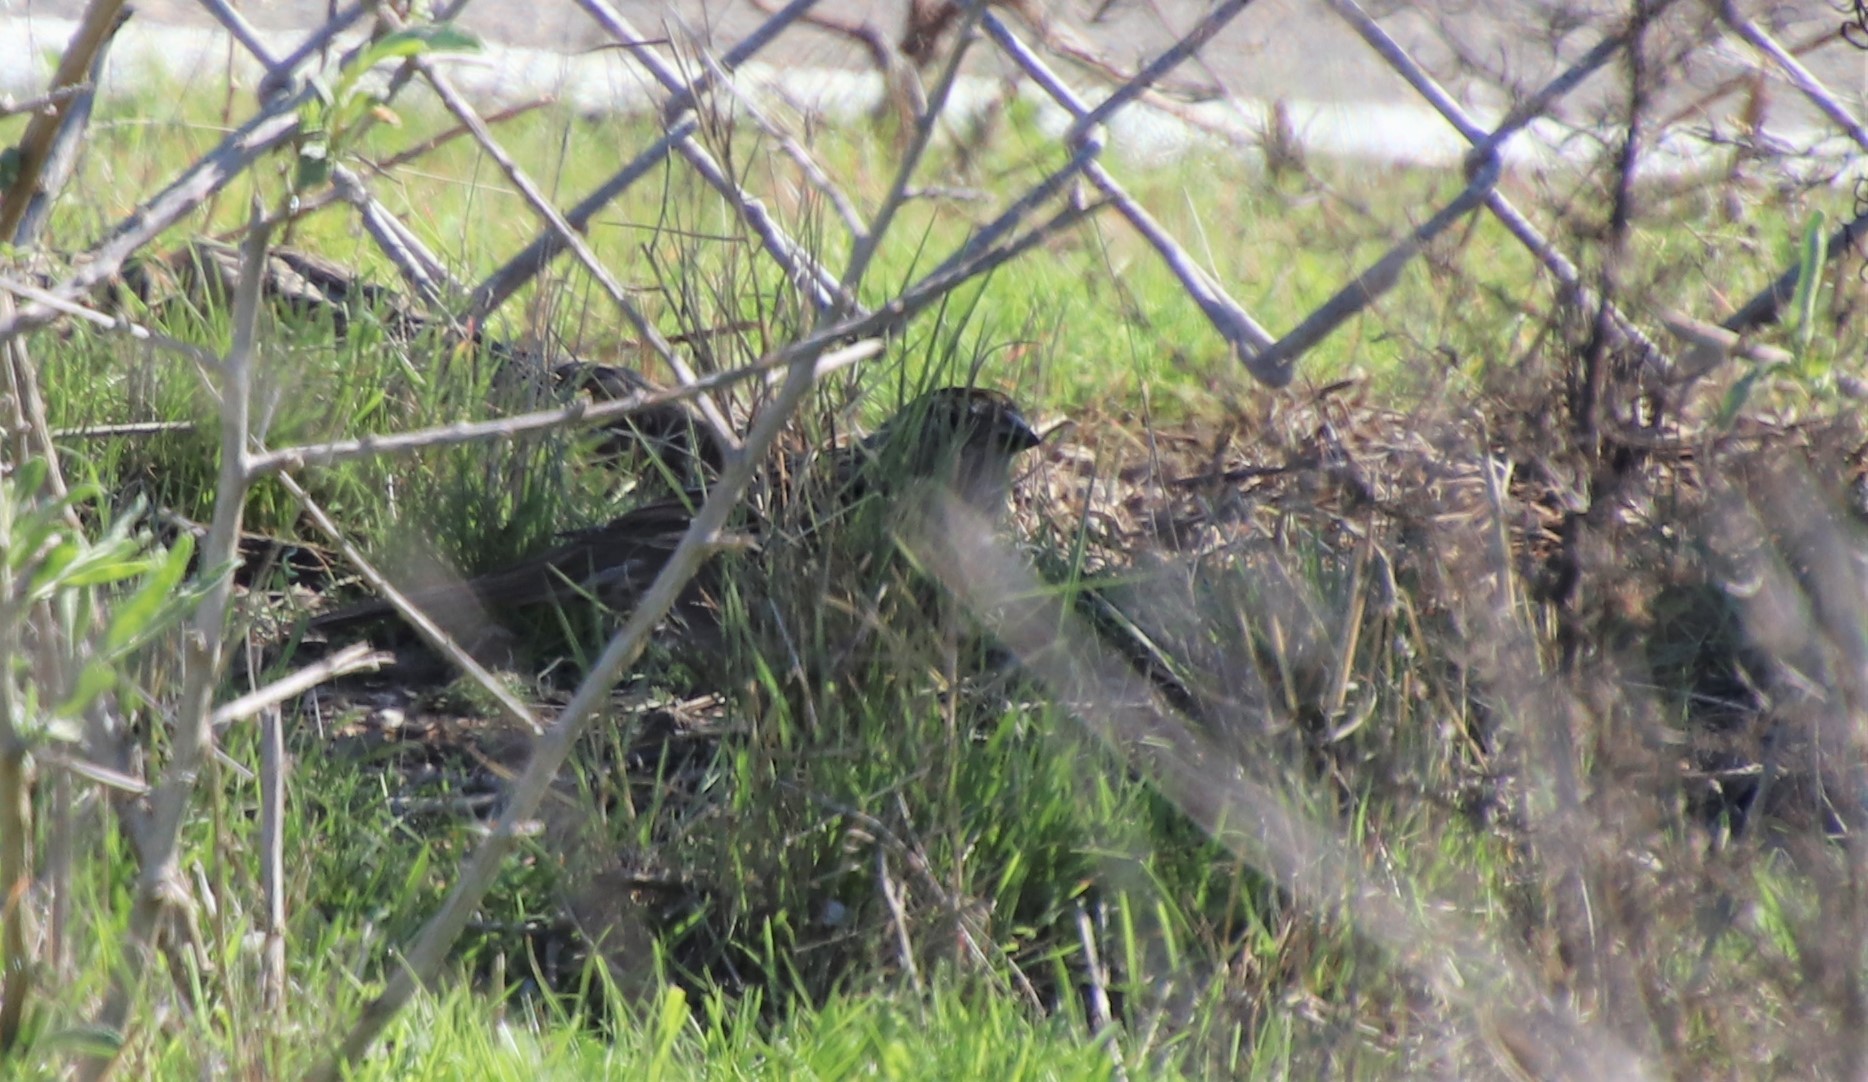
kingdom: Animalia
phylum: Chordata
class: Aves
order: Passeriformes
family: Passerellidae
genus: Zonotrichia
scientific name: Zonotrichia atricapilla
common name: Golden-crowned sparrow
